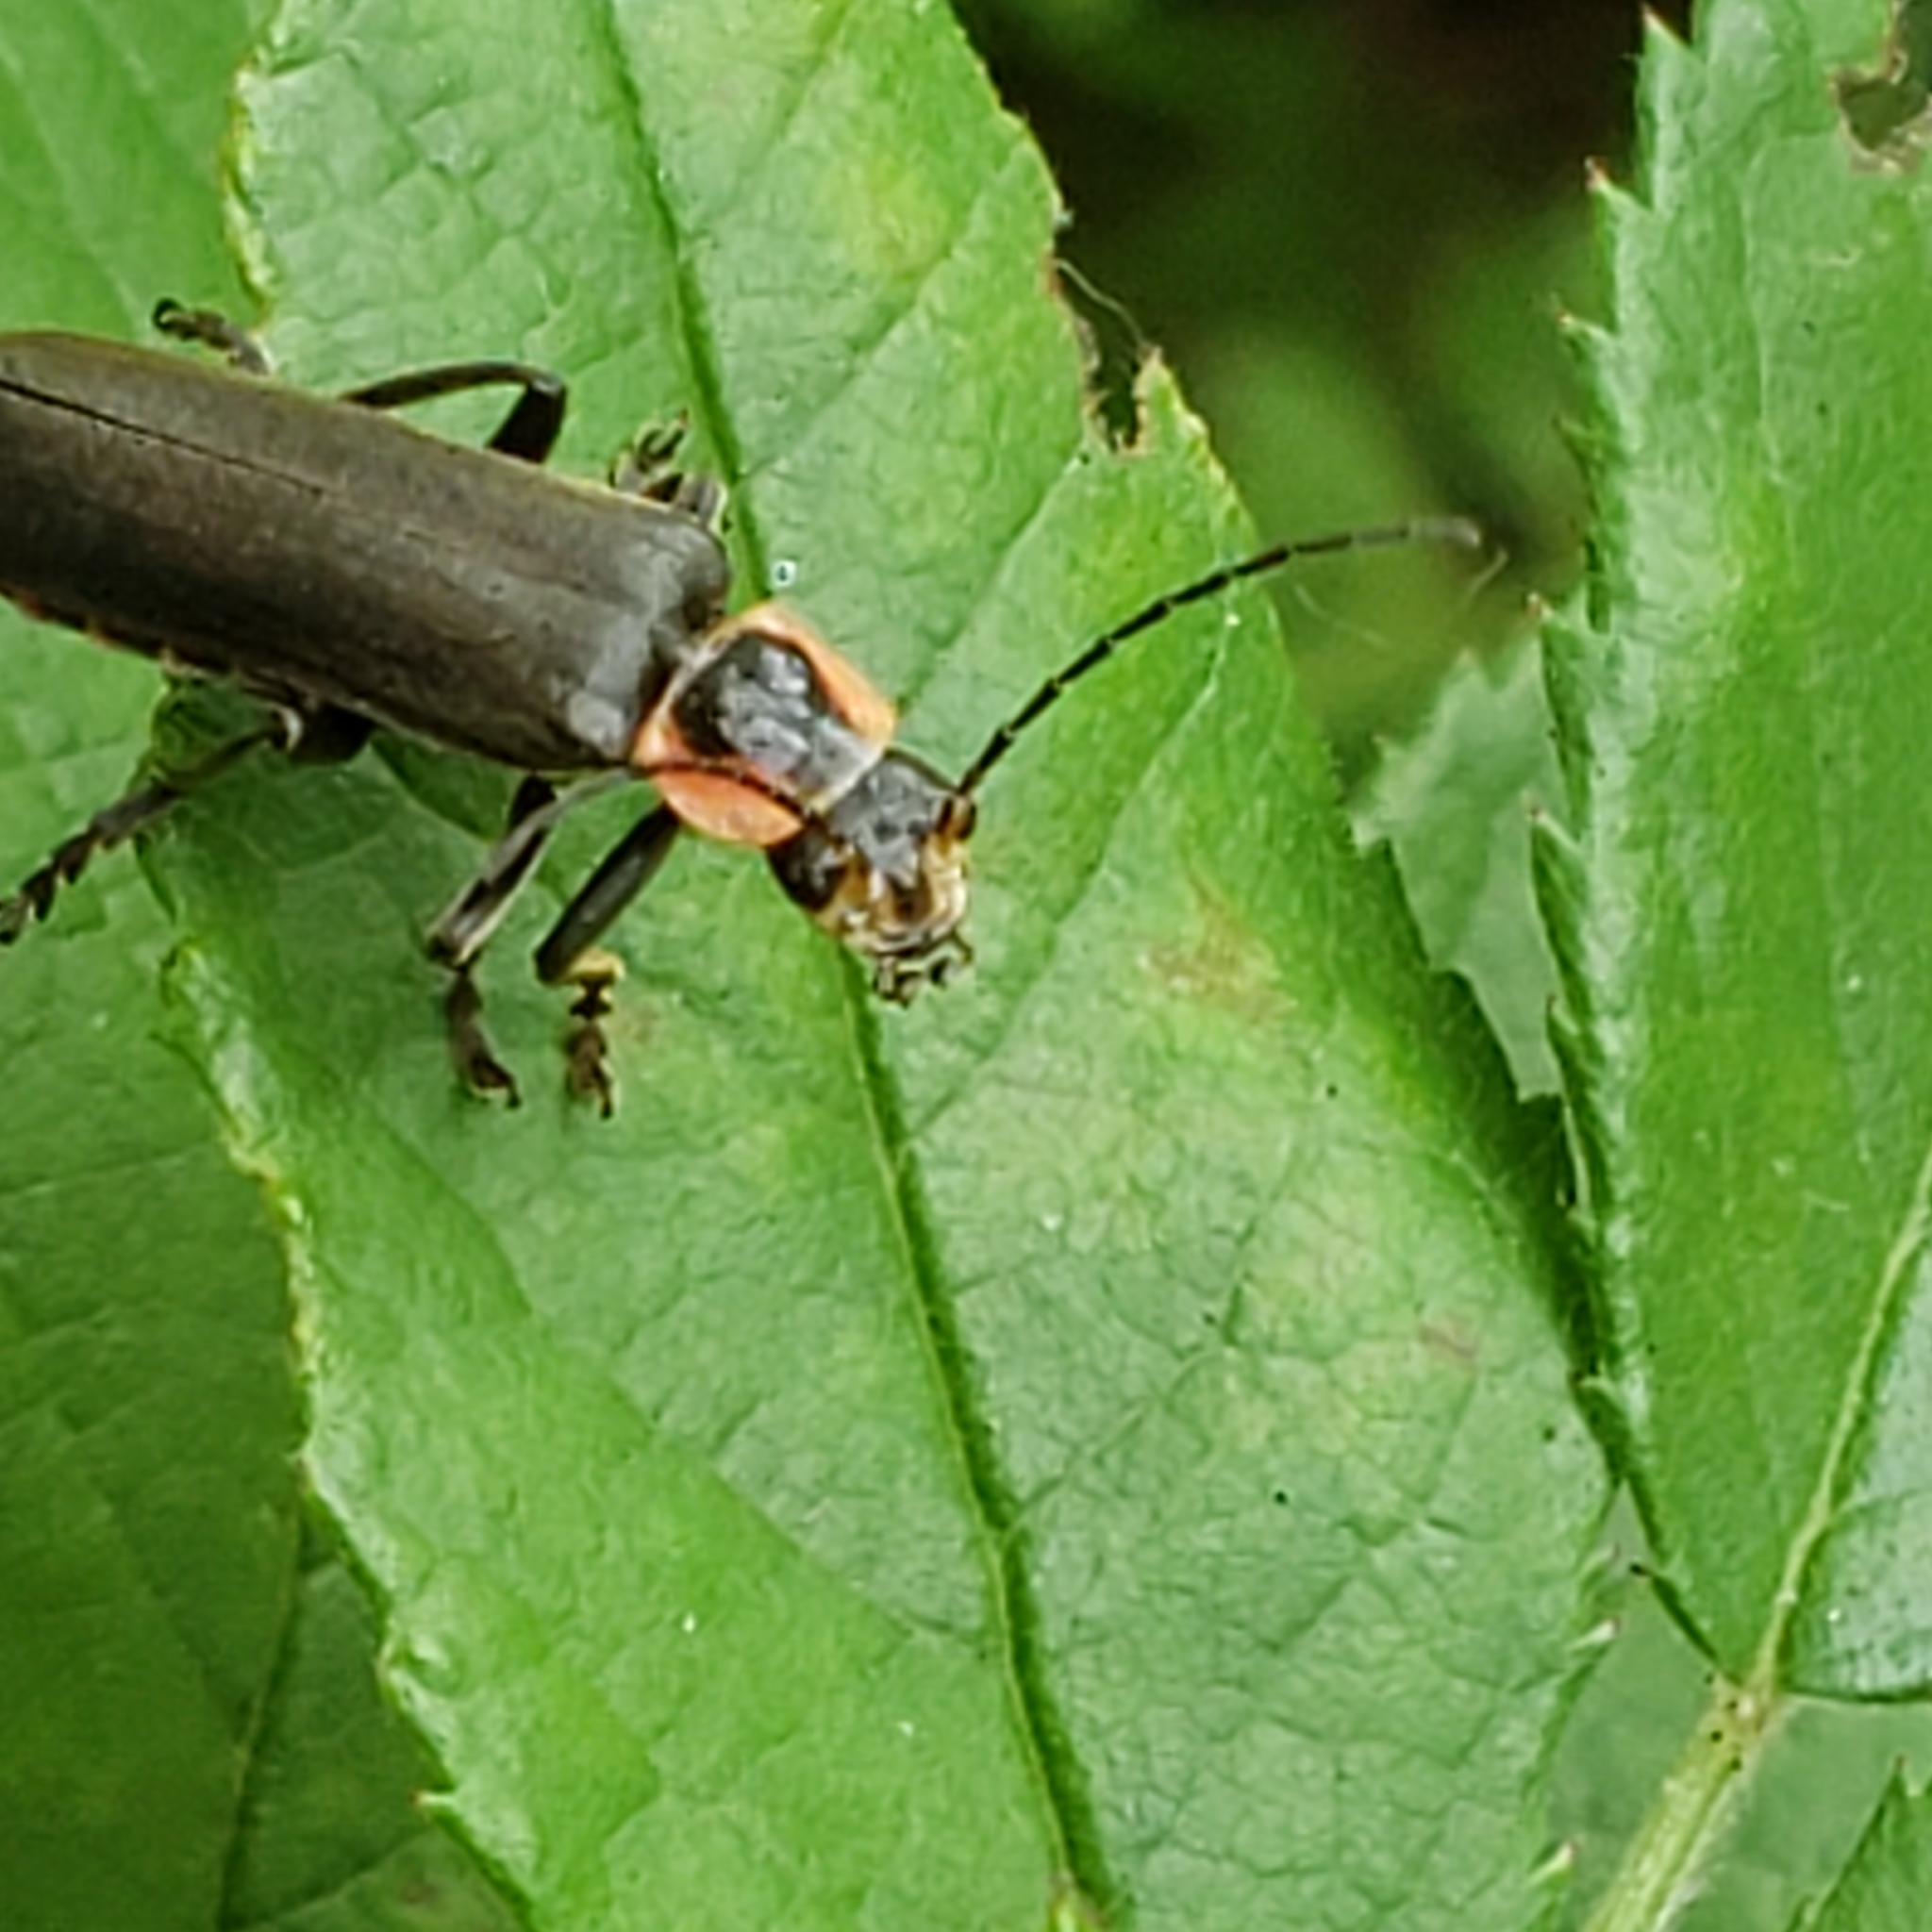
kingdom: Animalia
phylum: Arthropoda
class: Insecta
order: Coleoptera
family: Cantharidae
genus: Rhaxonycha
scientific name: Rhaxonycha carolina
